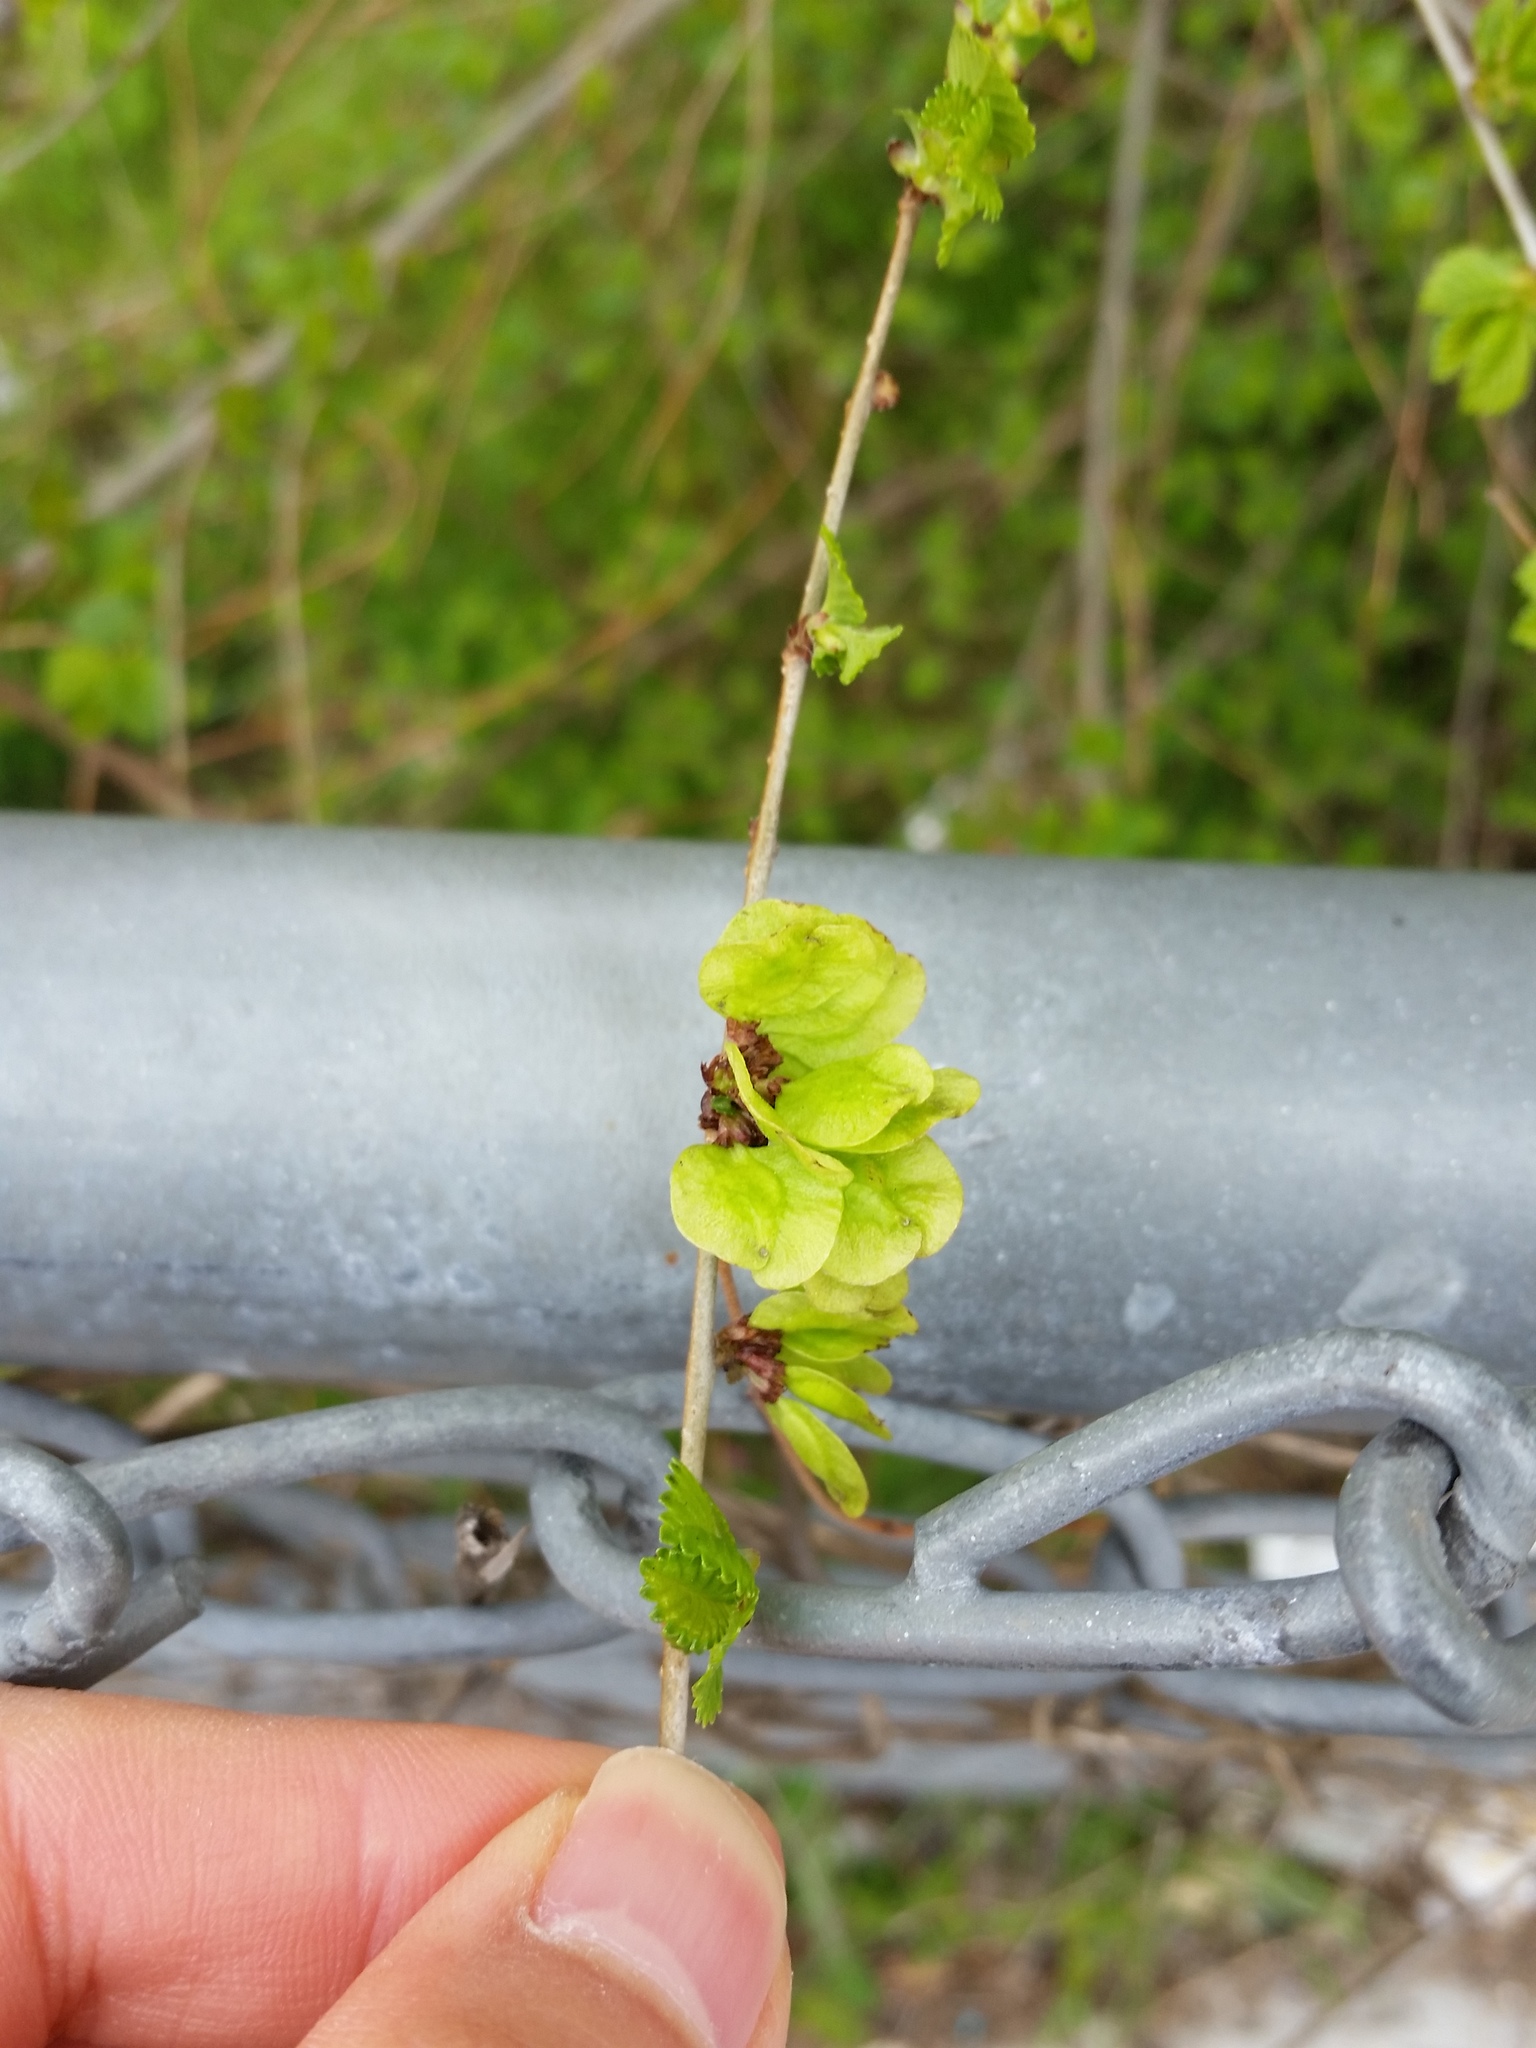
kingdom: Plantae
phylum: Tracheophyta
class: Magnoliopsida
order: Rosales
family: Ulmaceae
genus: Ulmus
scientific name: Ulmus pumila
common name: Siberian elm
